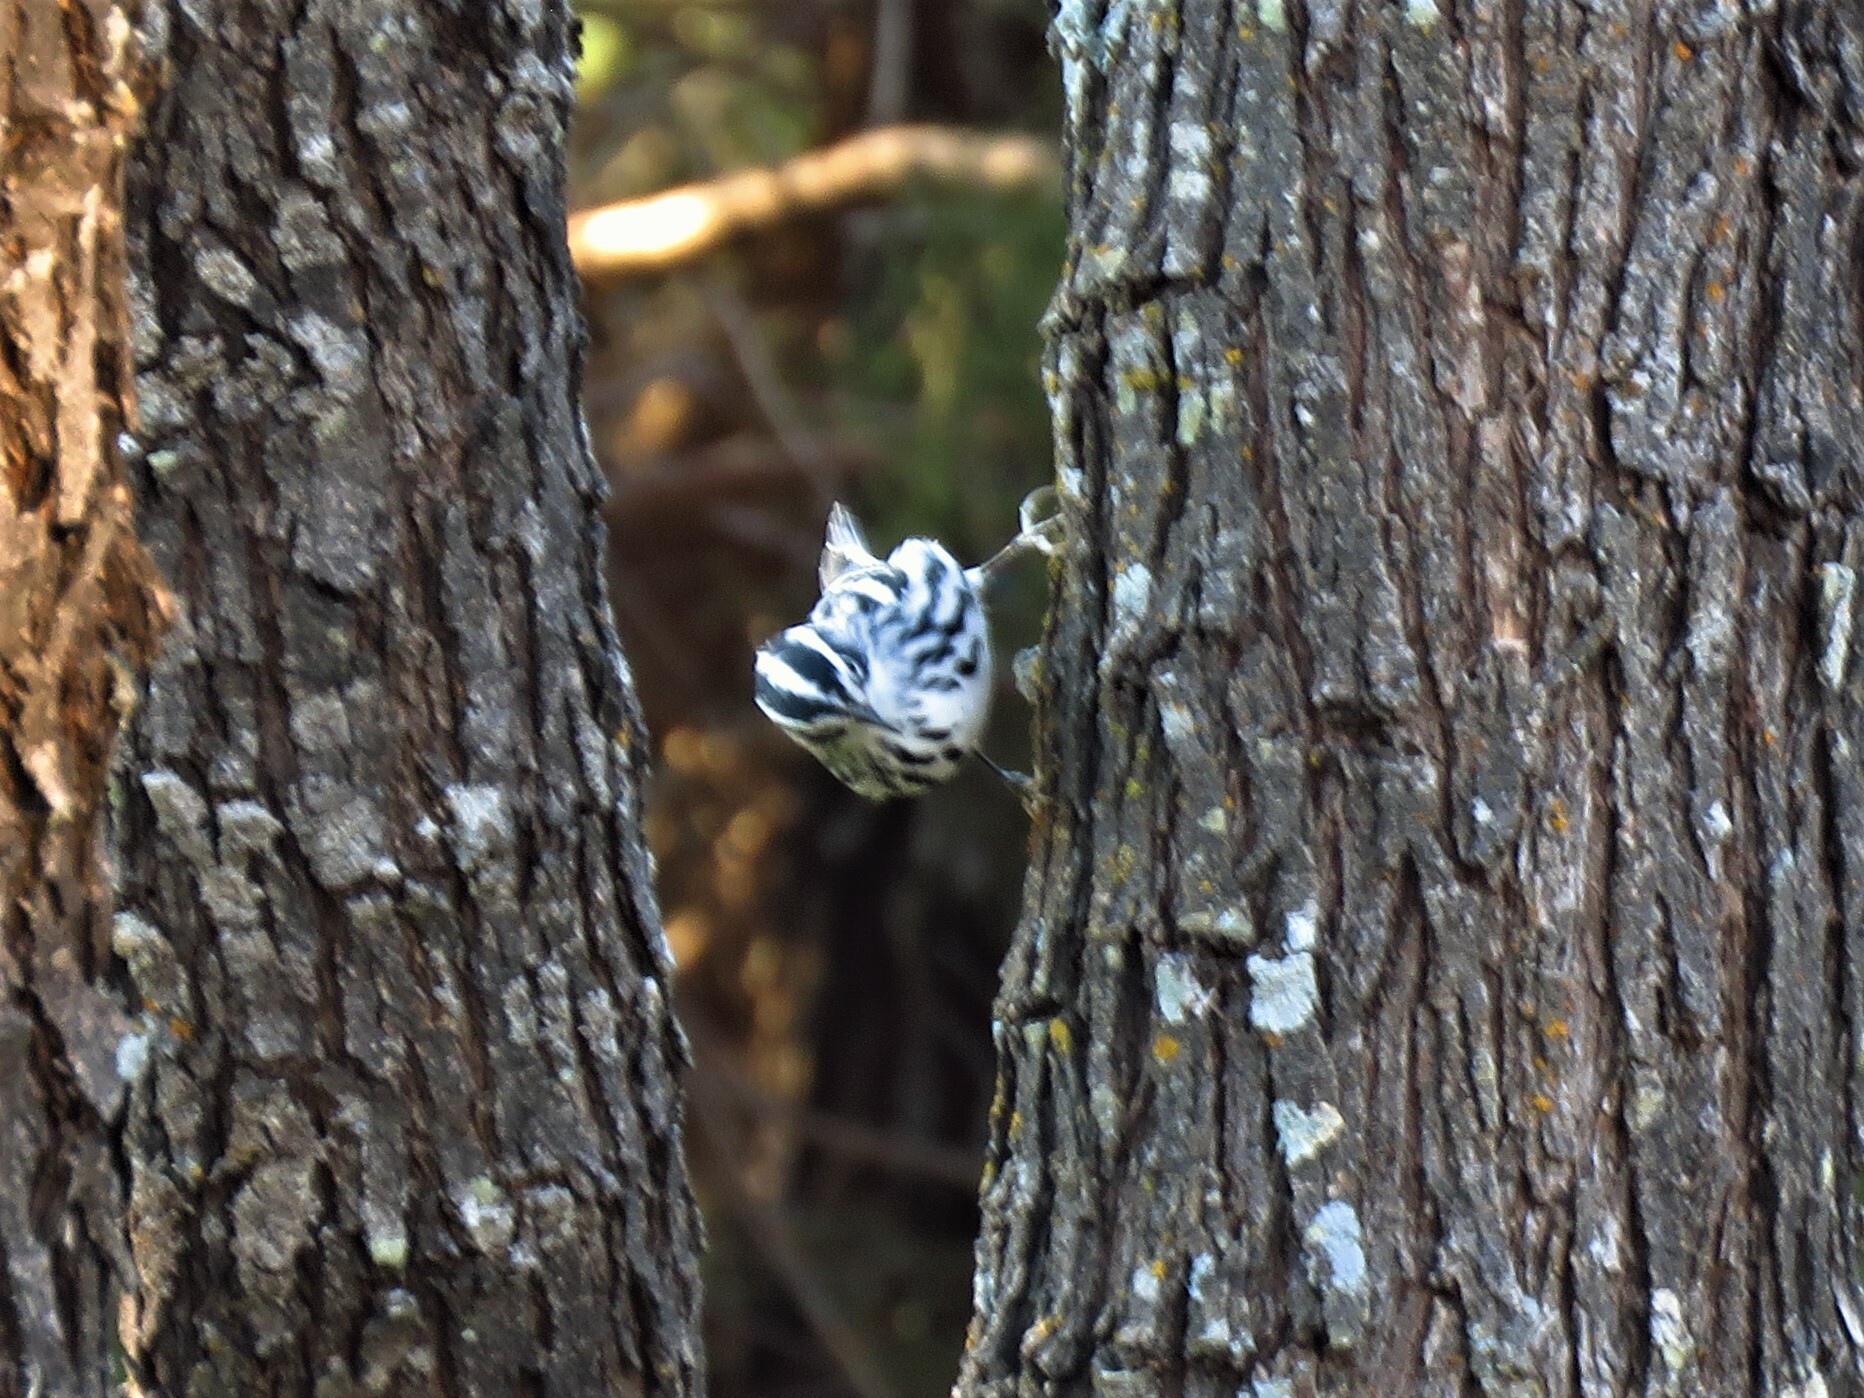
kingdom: Animalia
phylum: Chordata
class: Aves
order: Passeriformes
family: Parulidae
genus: Mniotilta
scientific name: Mniotilta varia
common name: Black-and-white warbler
